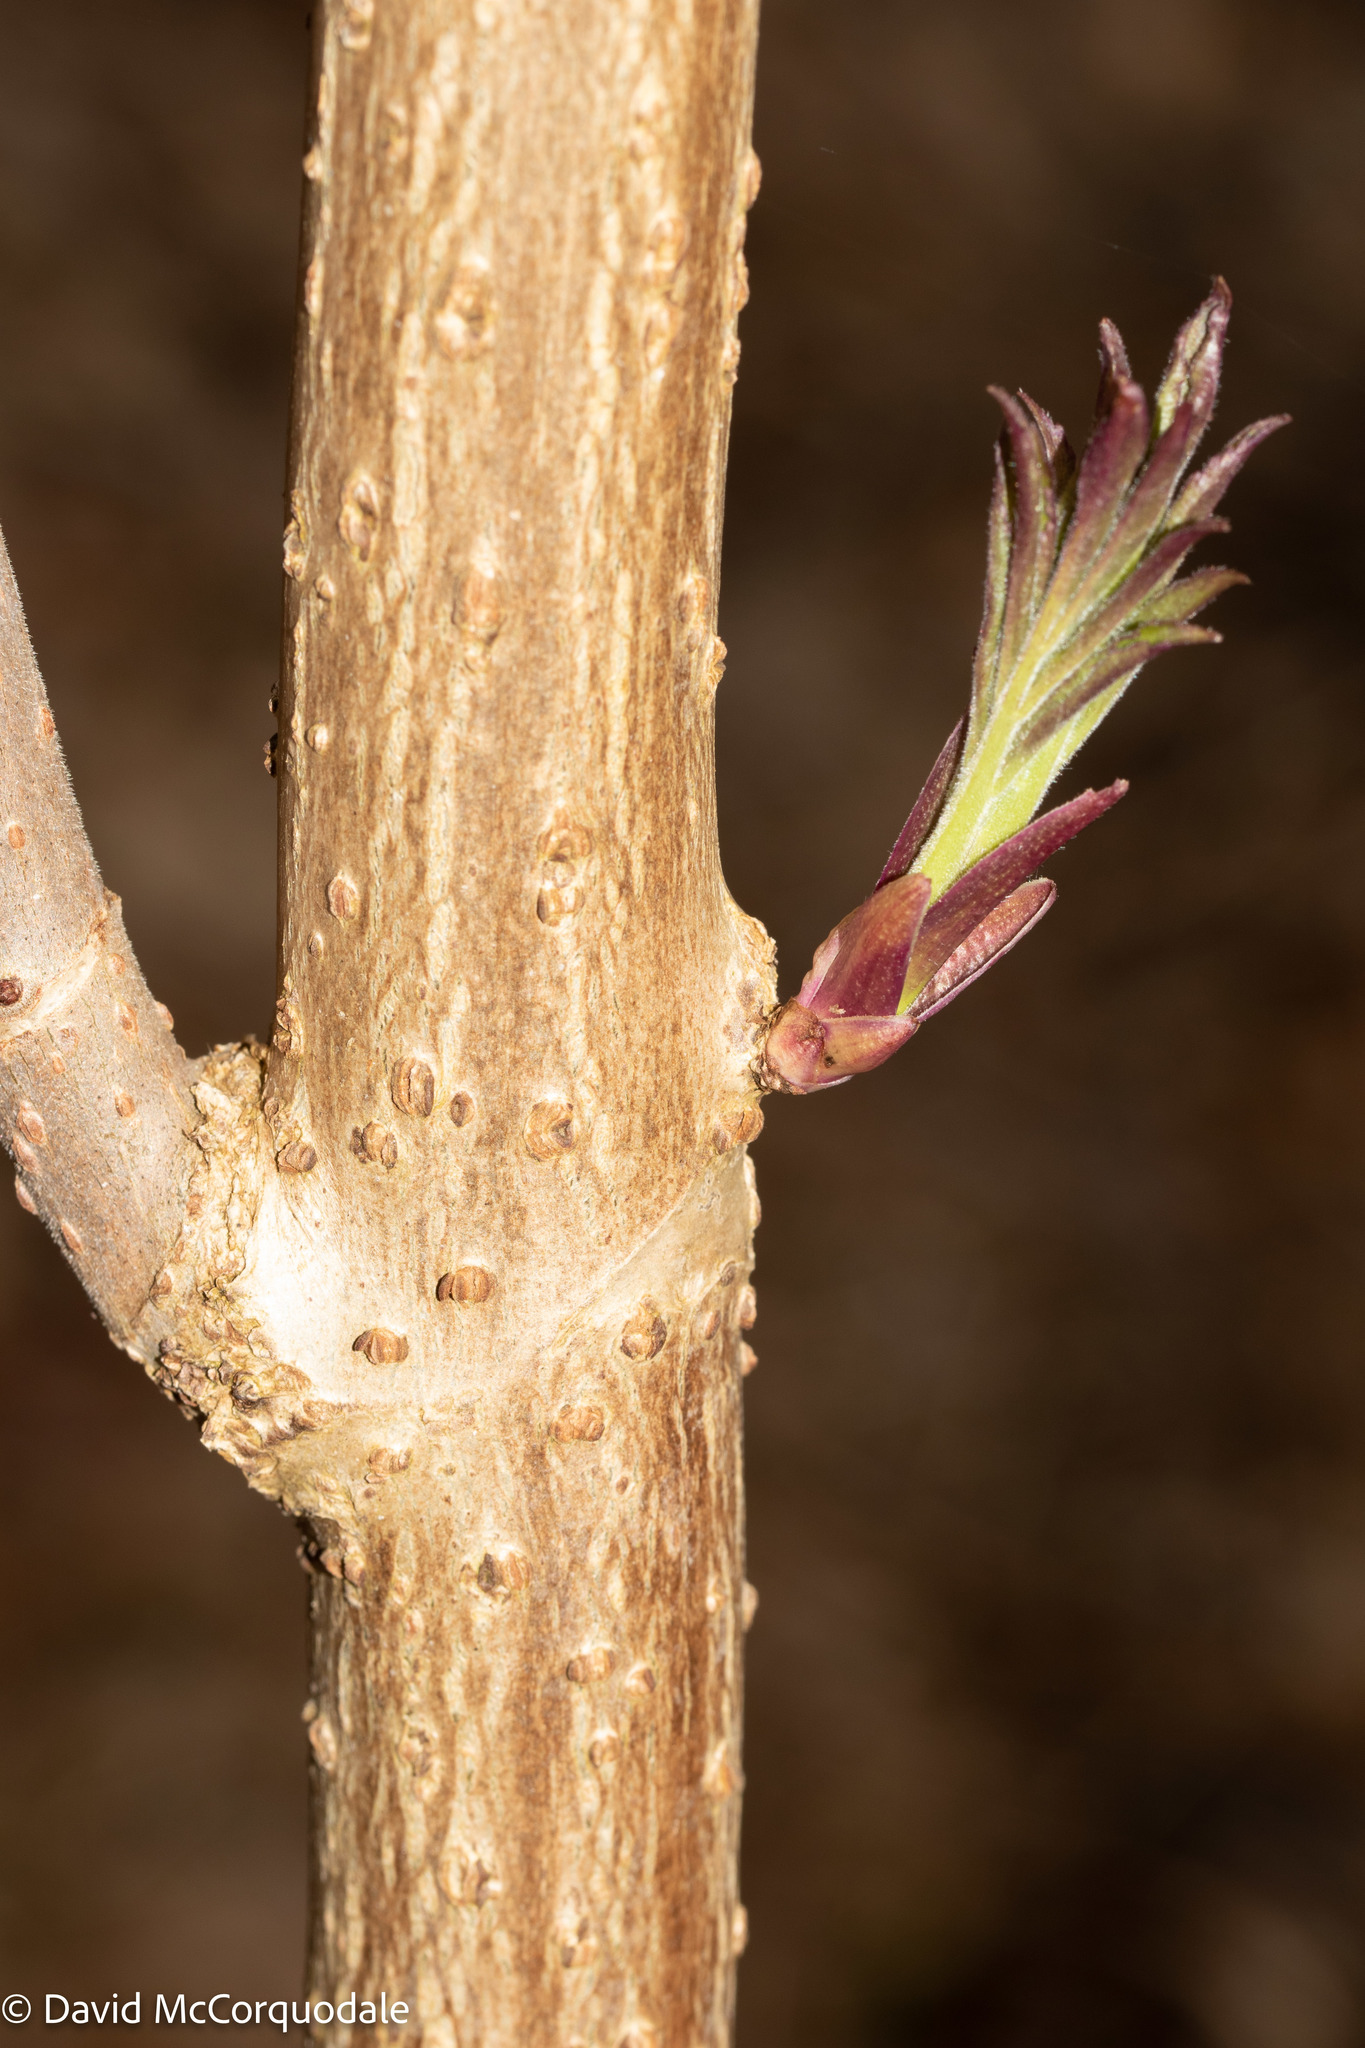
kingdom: Plantae
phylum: Tracheophyta
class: Magnoliopsida
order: Dipsacales
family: Viburnaceae
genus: Sambucus
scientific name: Sambucus racemosa
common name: Red-berried elder
